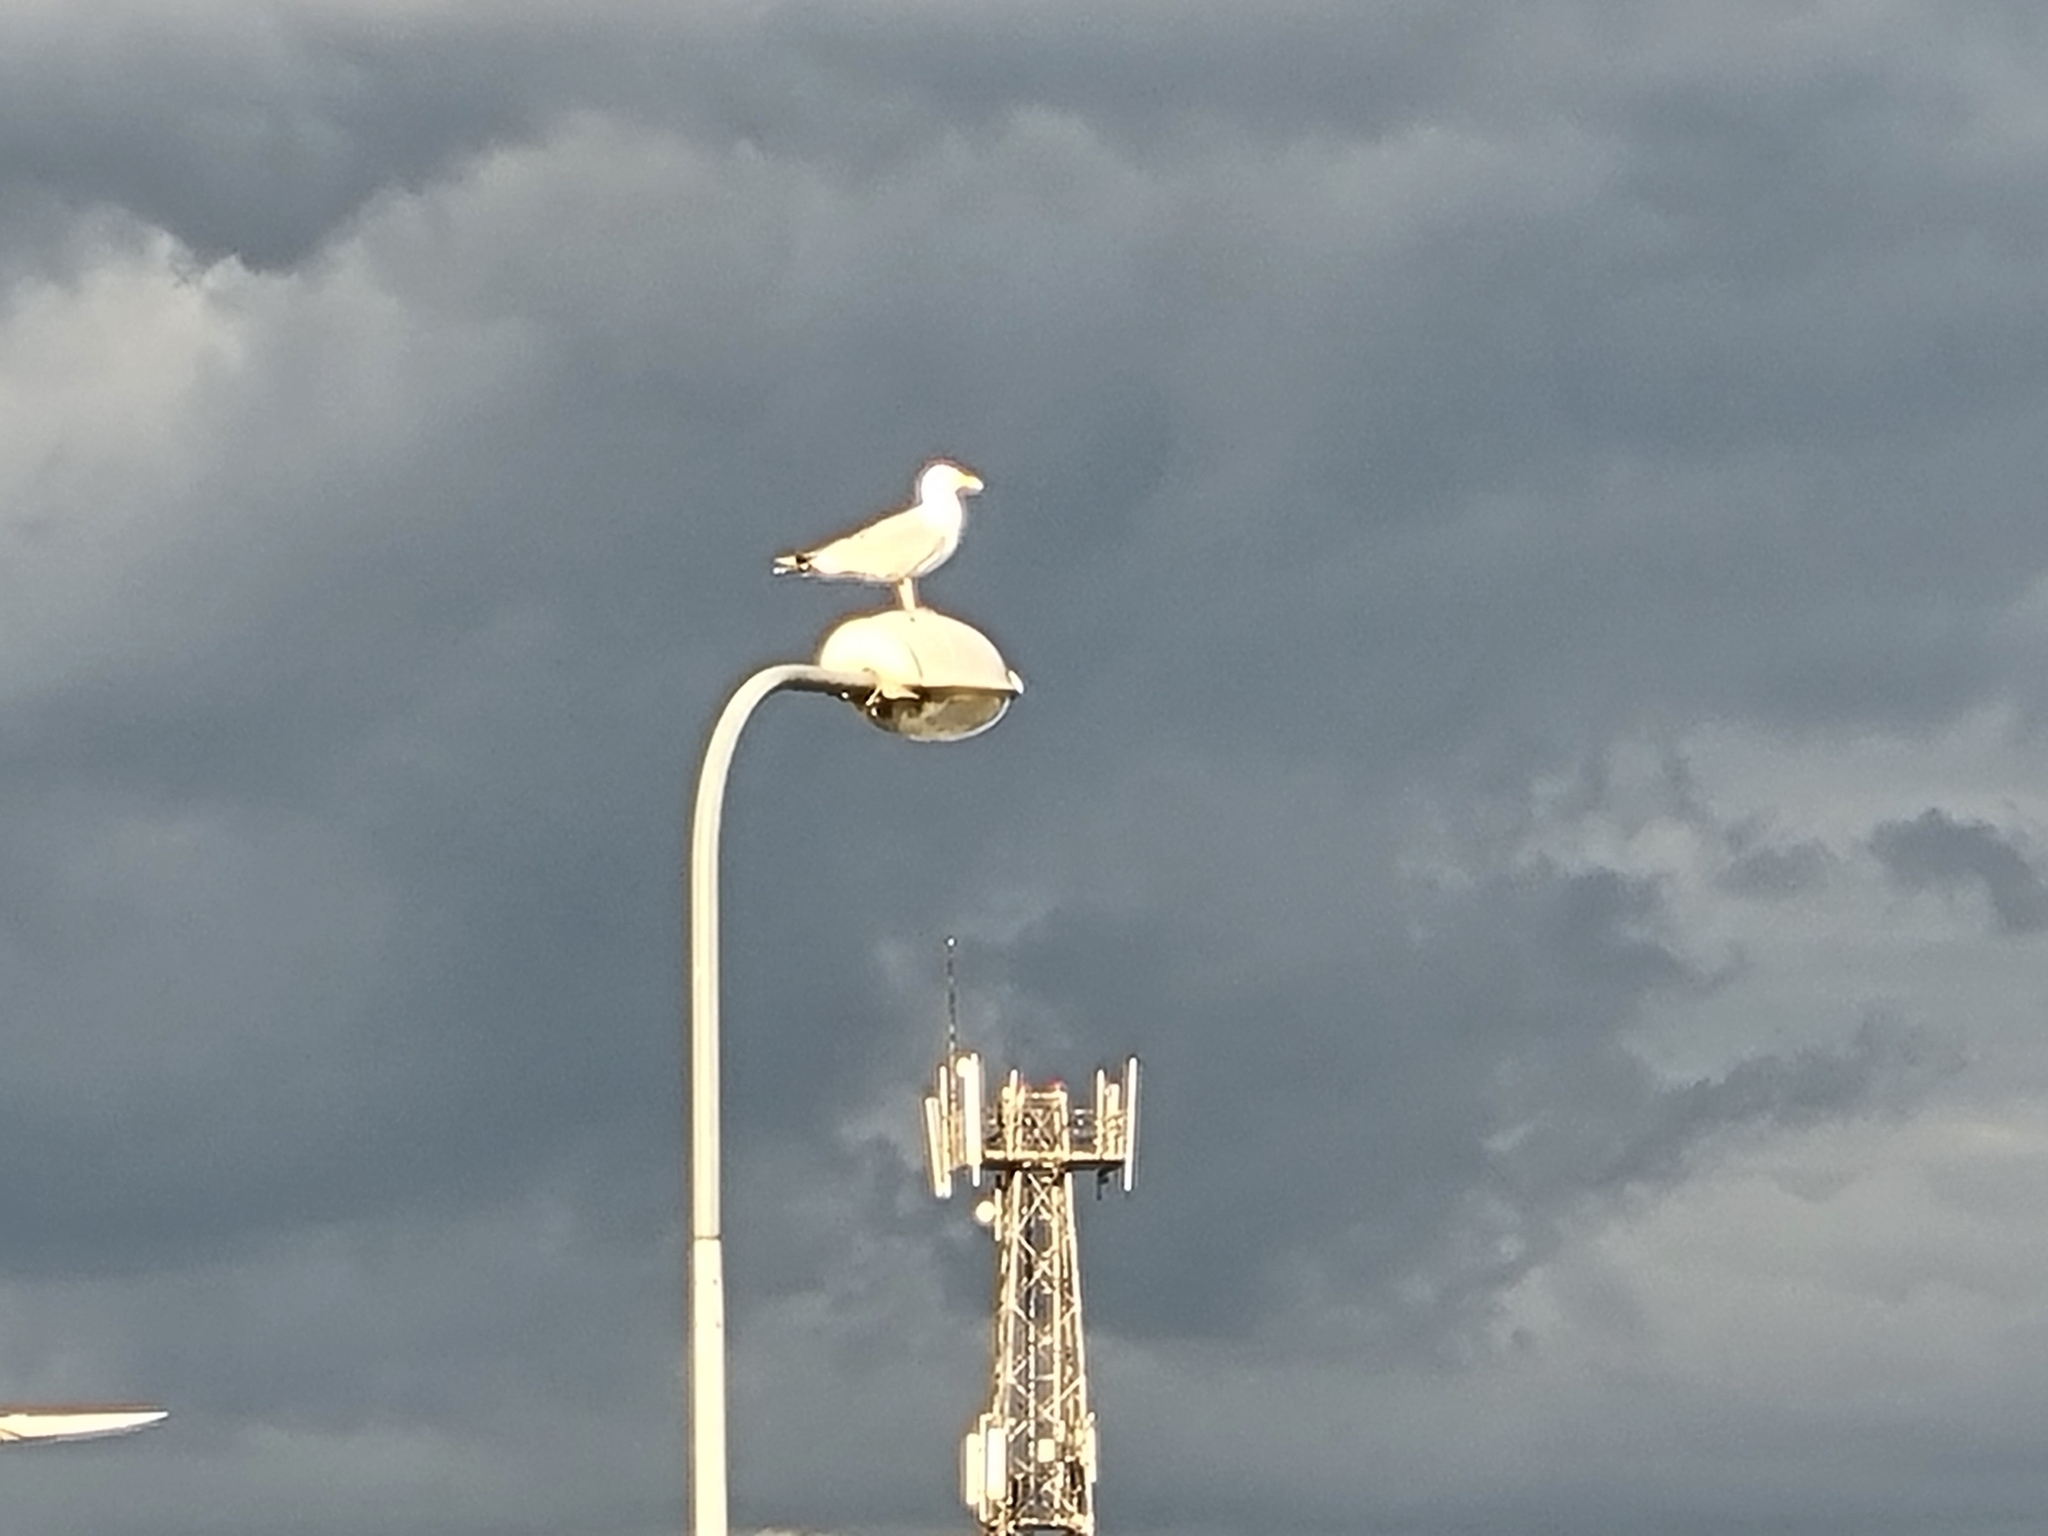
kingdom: Animalia
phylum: Chordata
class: Aves
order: Charadriiformes
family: Laridae
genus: Larus
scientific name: Larus argentatus
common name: Herring gull
